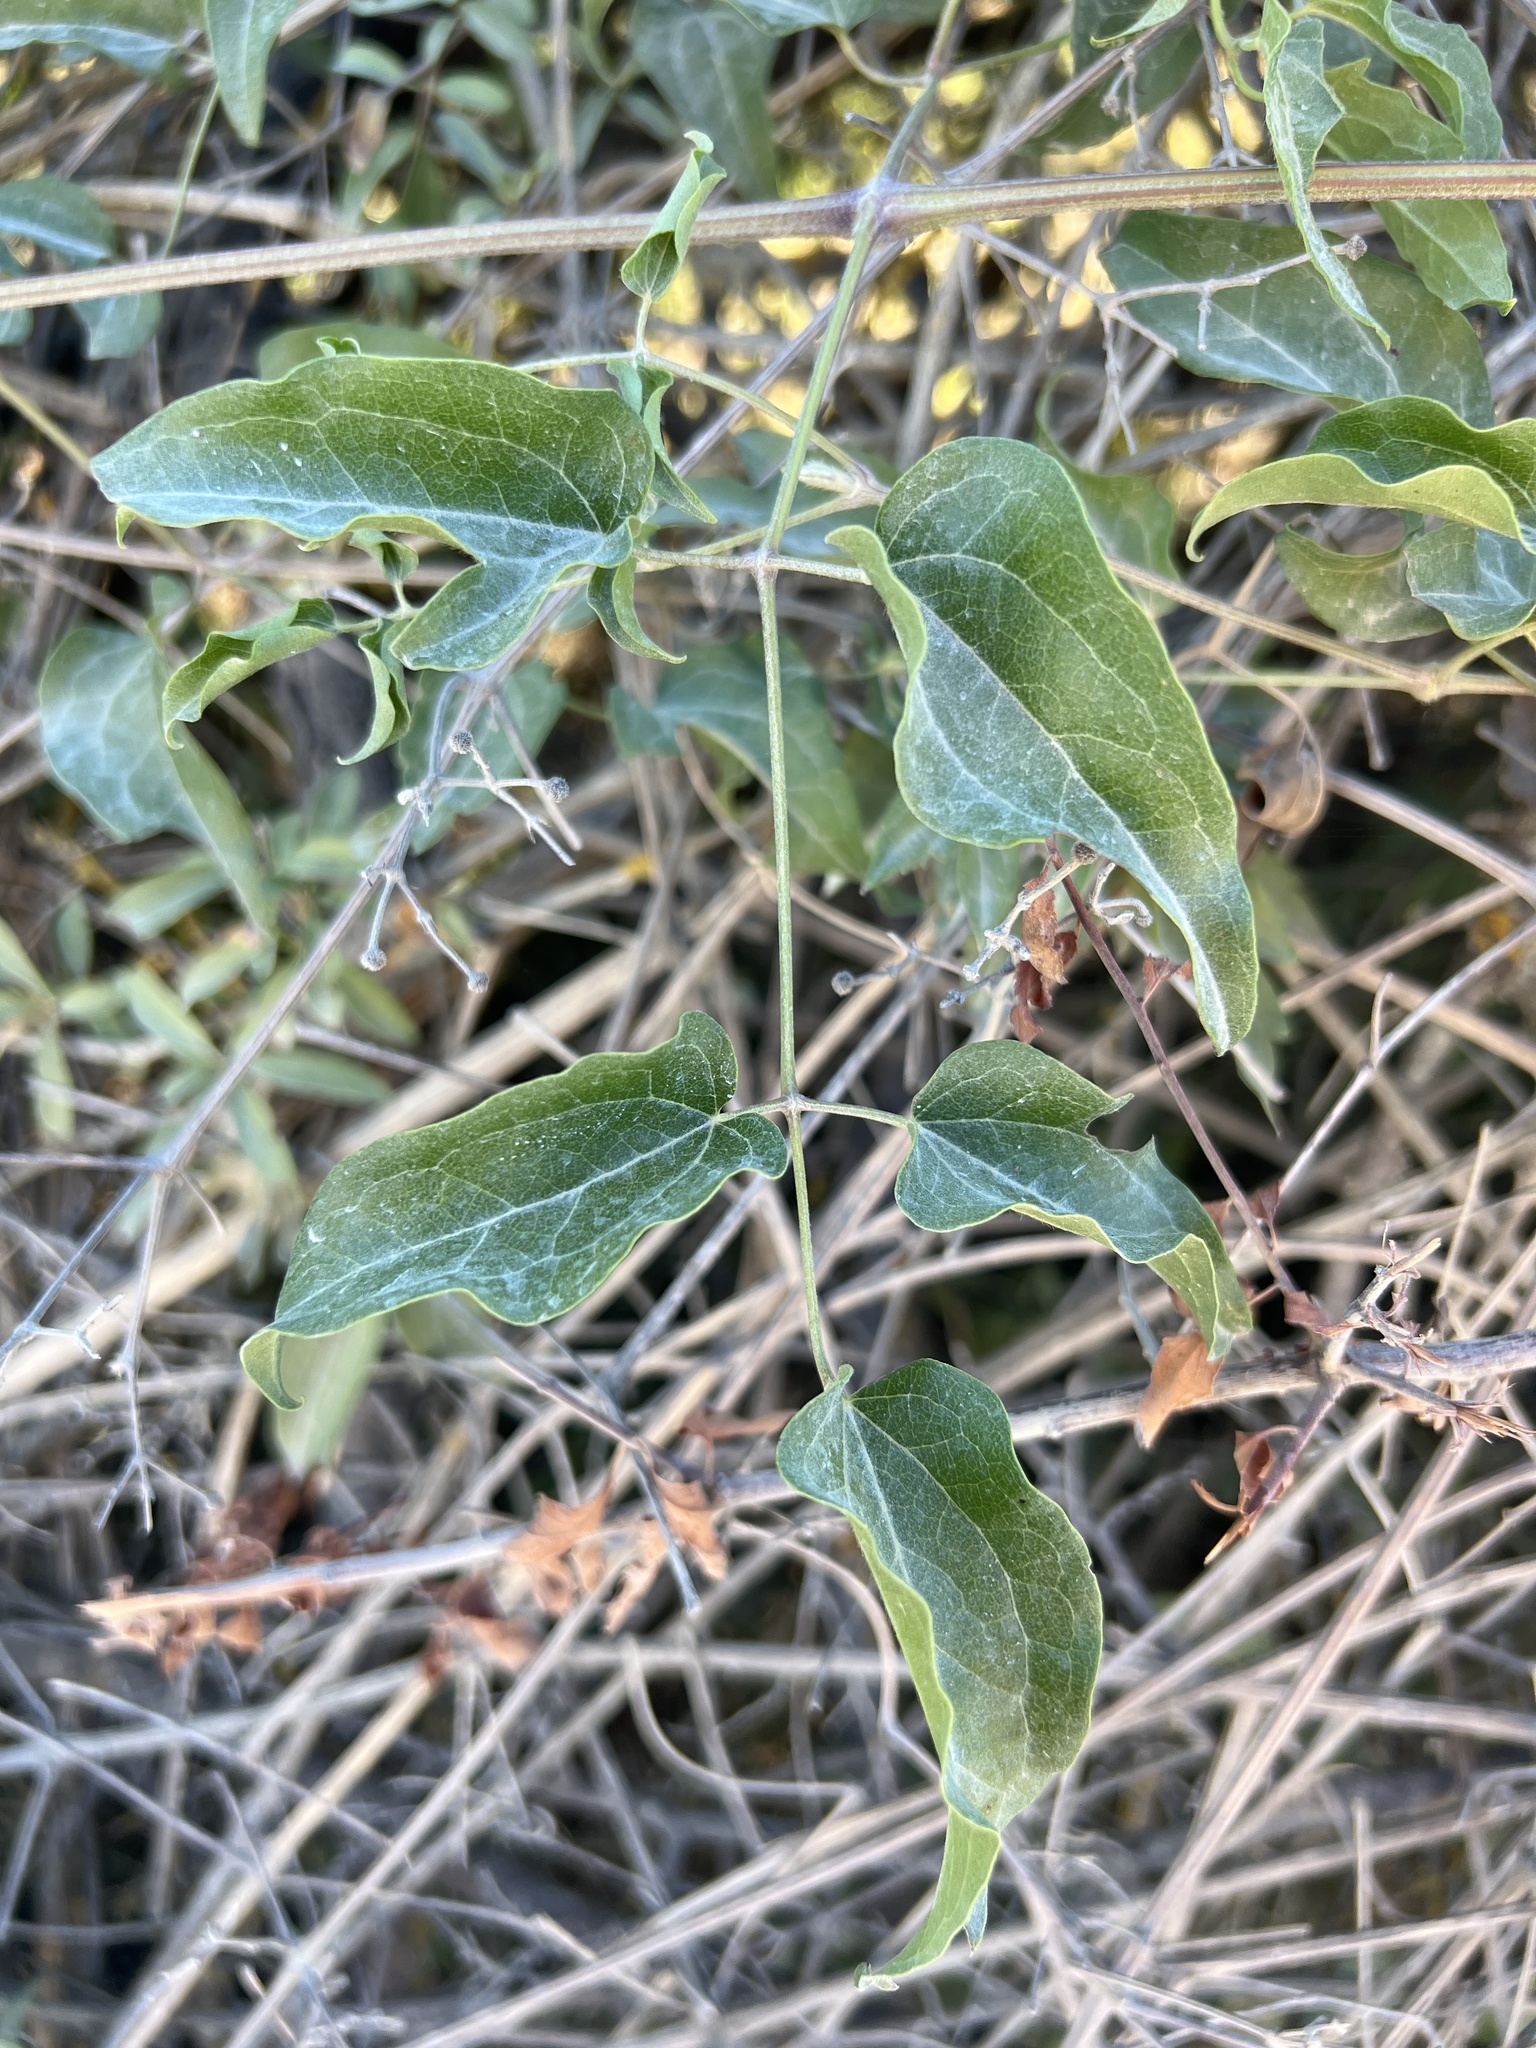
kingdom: Plantae
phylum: Tracheophyta
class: Magnoliopsida
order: Ranunculales
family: Ranunculaceae
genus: Clematis
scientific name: Clematis vitalba
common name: Evergreen clematis
